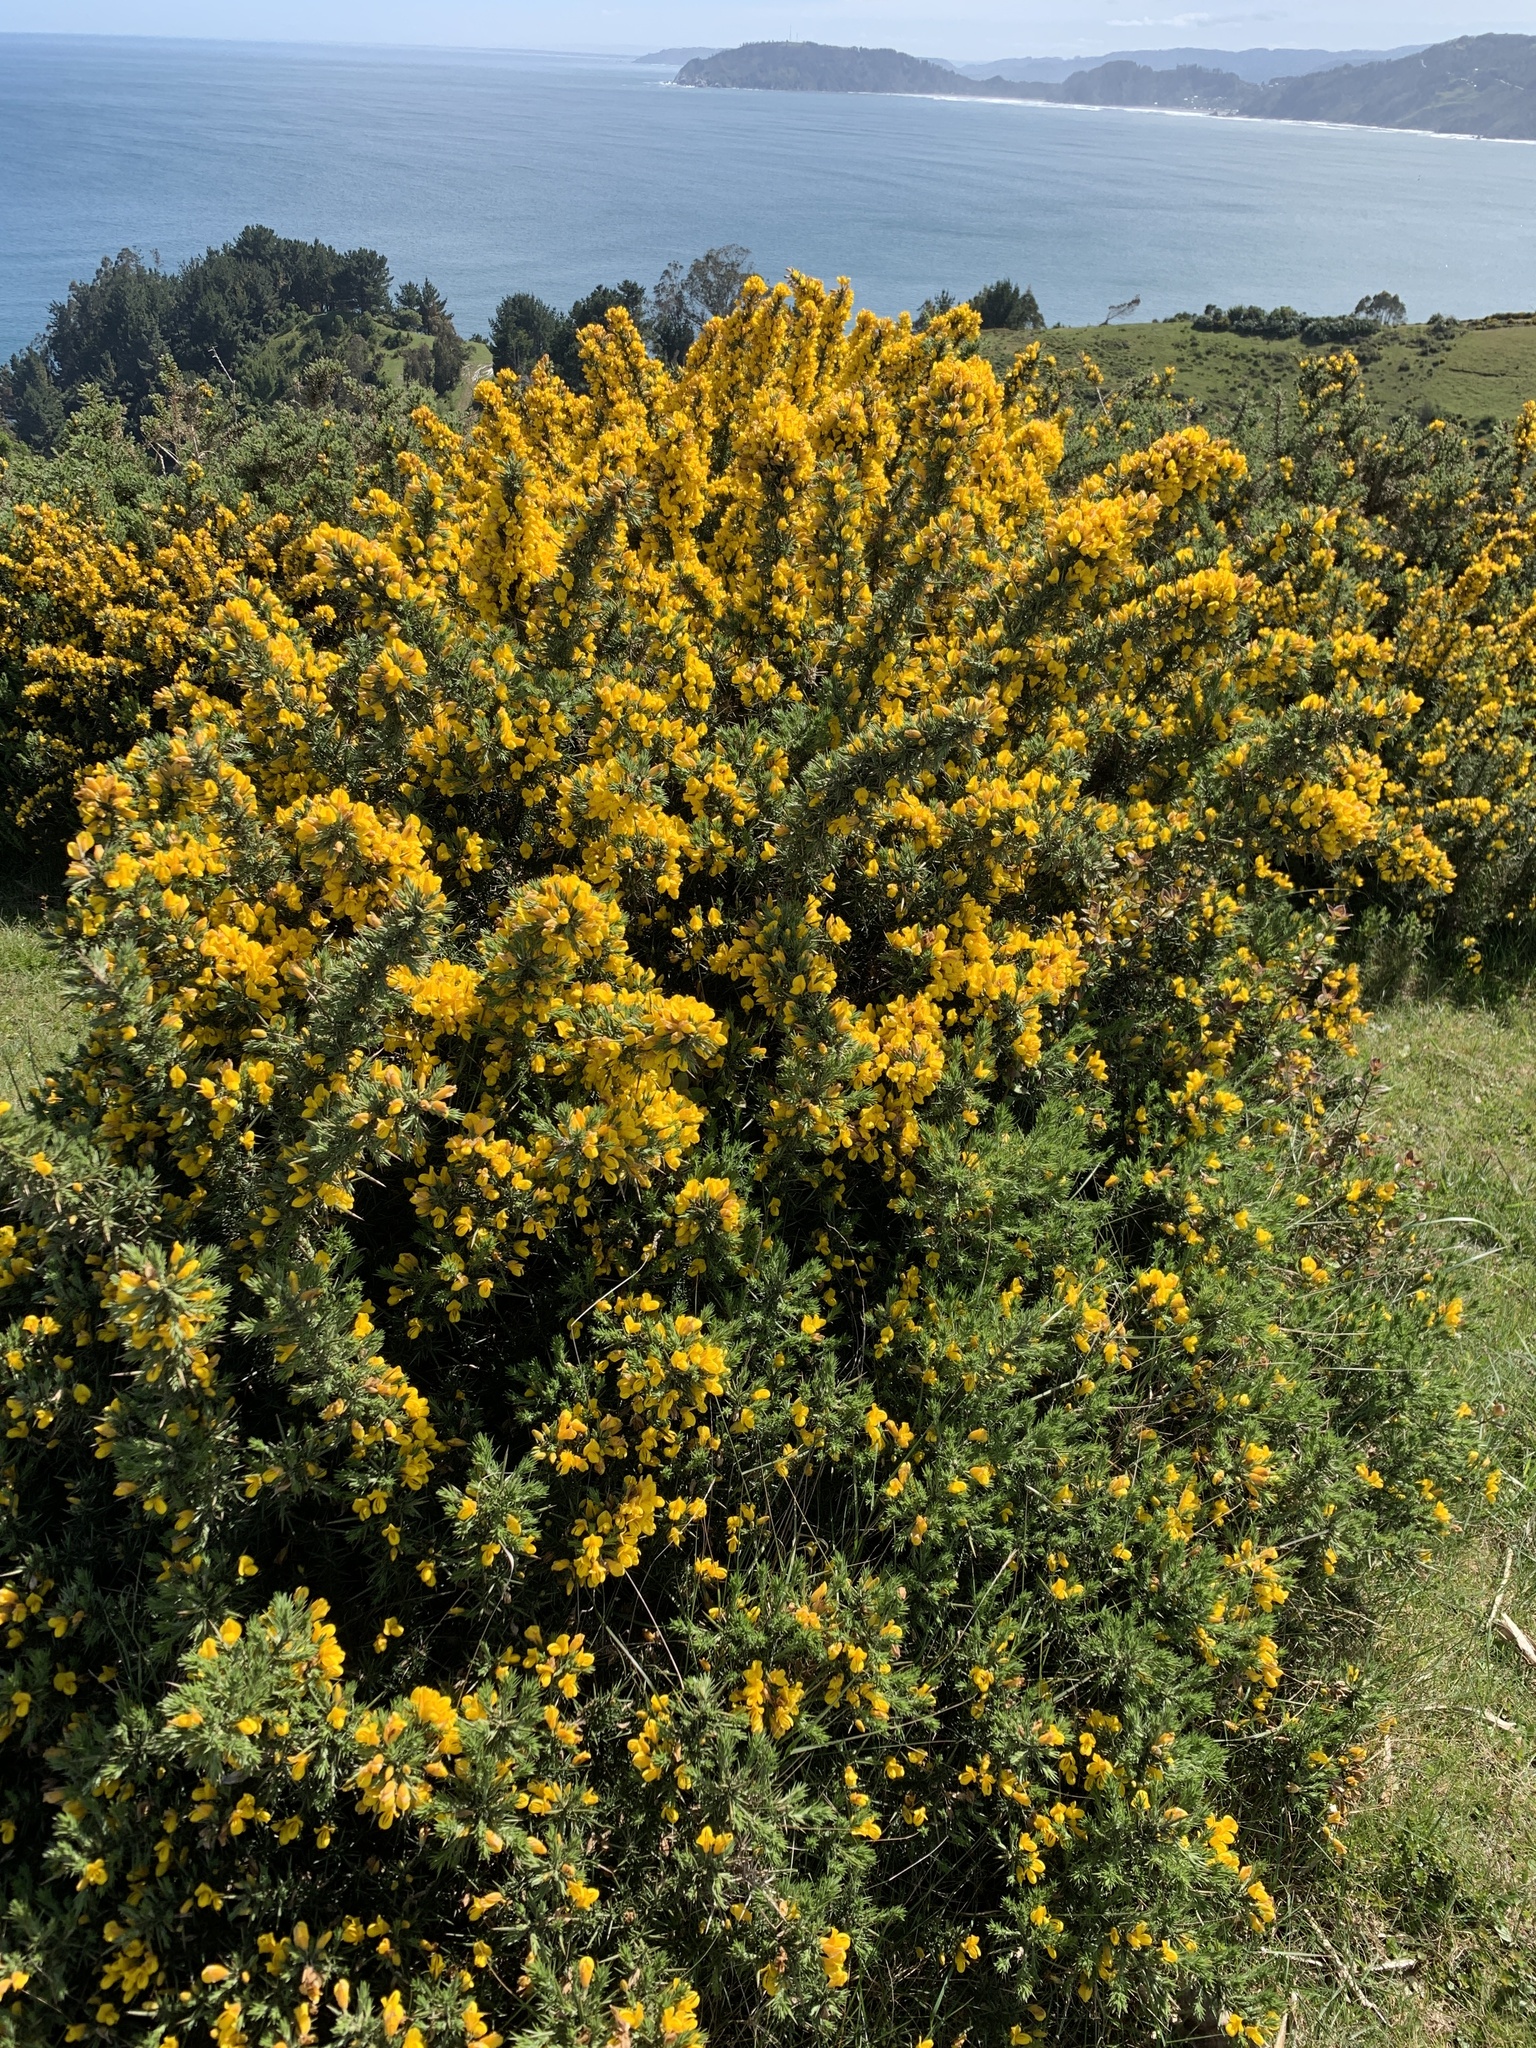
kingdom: Plantae
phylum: Tracheophyta
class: Magnoliopsida
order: Fabales
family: Fabaceae
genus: Ulex
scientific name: Ulex europaeus
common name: Common gorse
